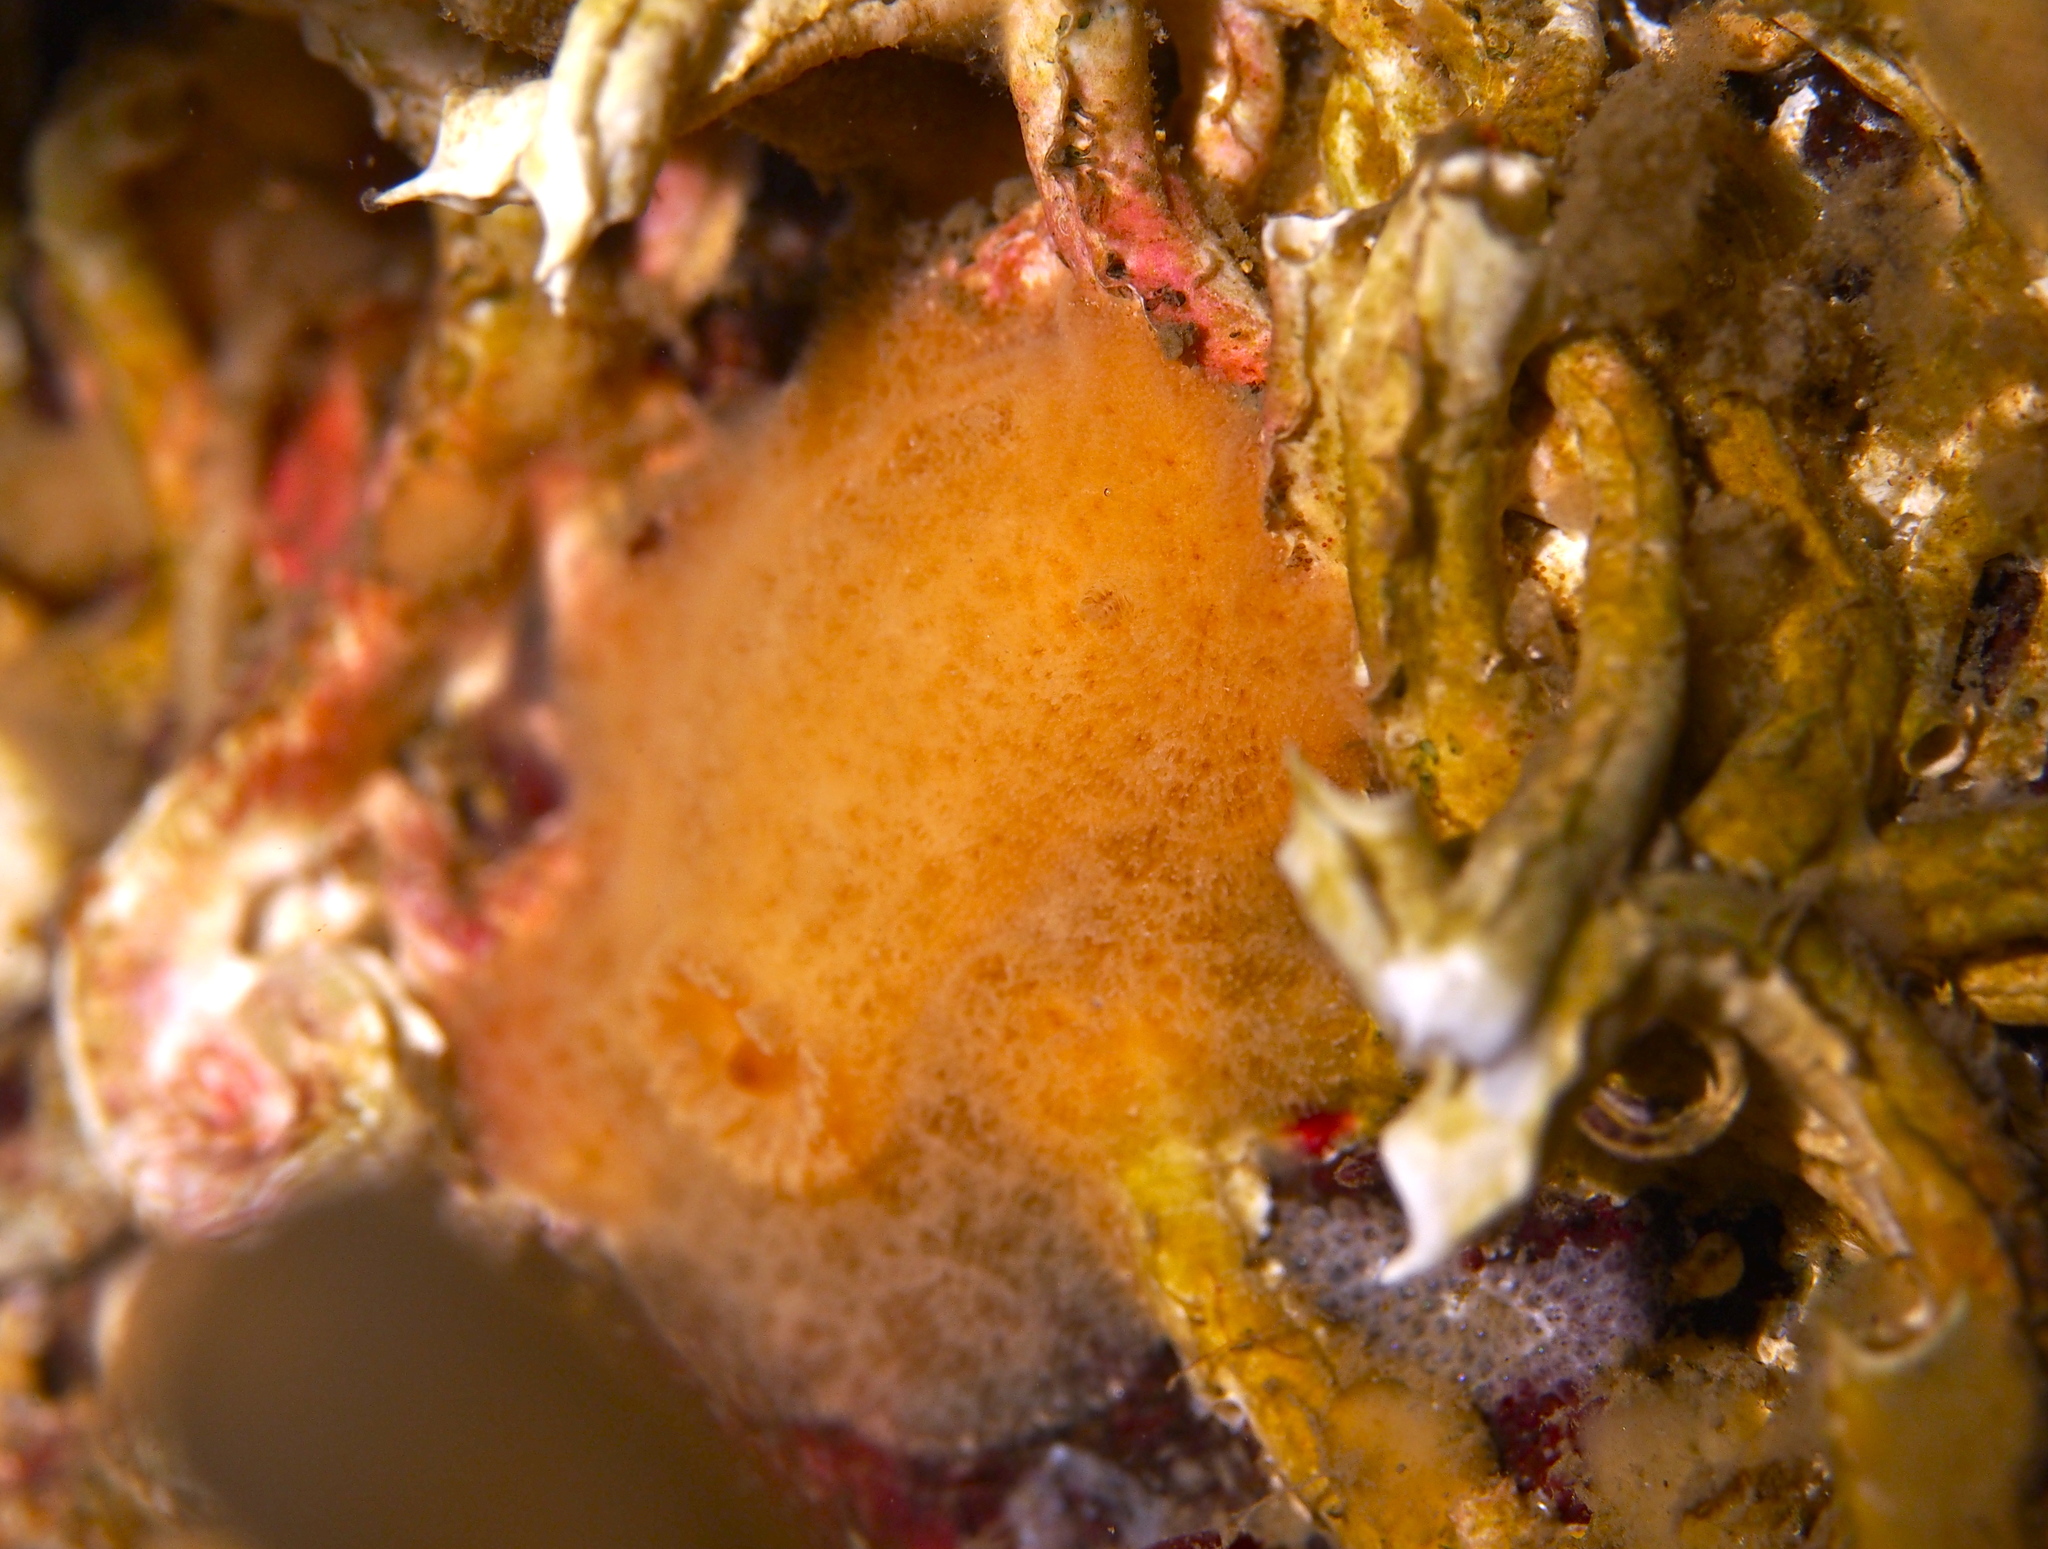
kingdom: Animalia
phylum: Mollusca
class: Gastropoda
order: Nudibranchia
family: Discodorididae
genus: Jorunna
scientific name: Jorunna tomentosa
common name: Grey sea slug
